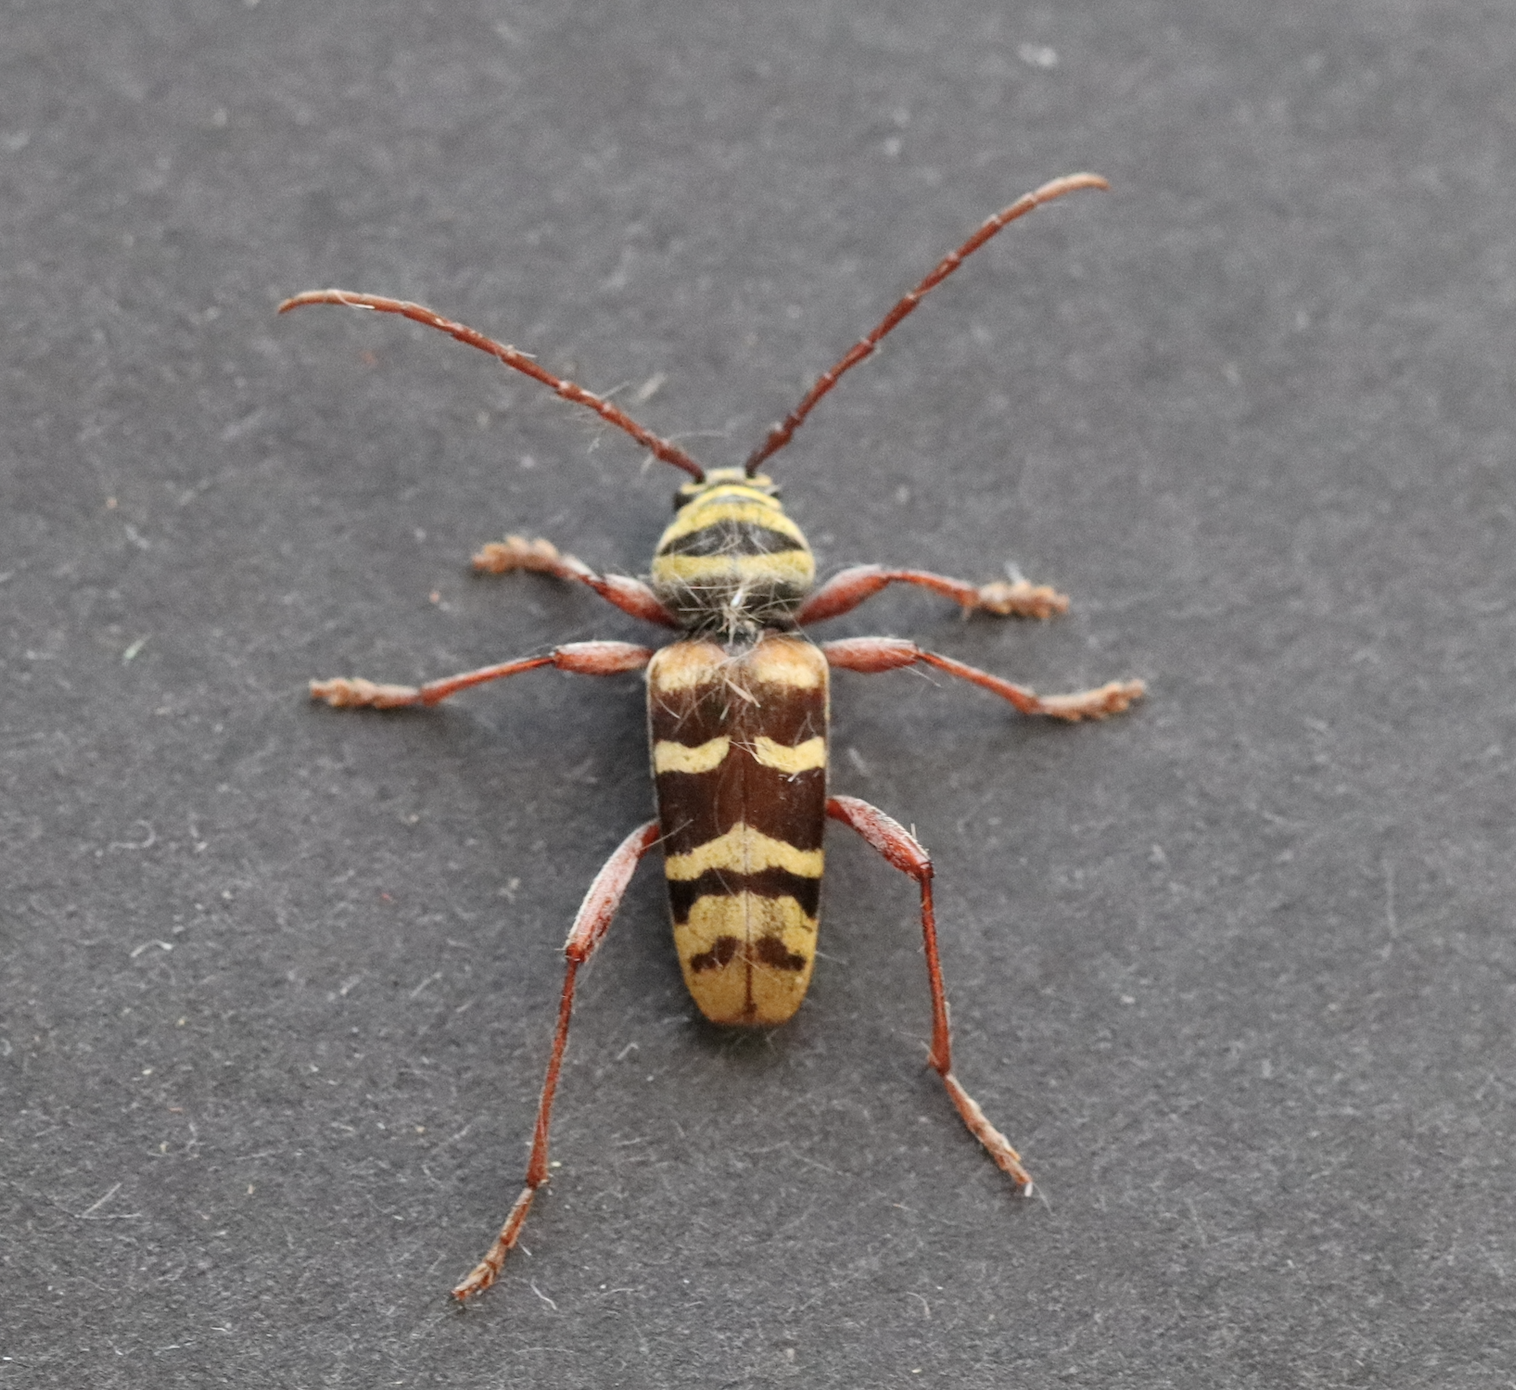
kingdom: Animalia
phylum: Arthropoda
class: Insecta
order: Coleoptera
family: Cerambycidae
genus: Plagionotus
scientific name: Plagionotus detritus
